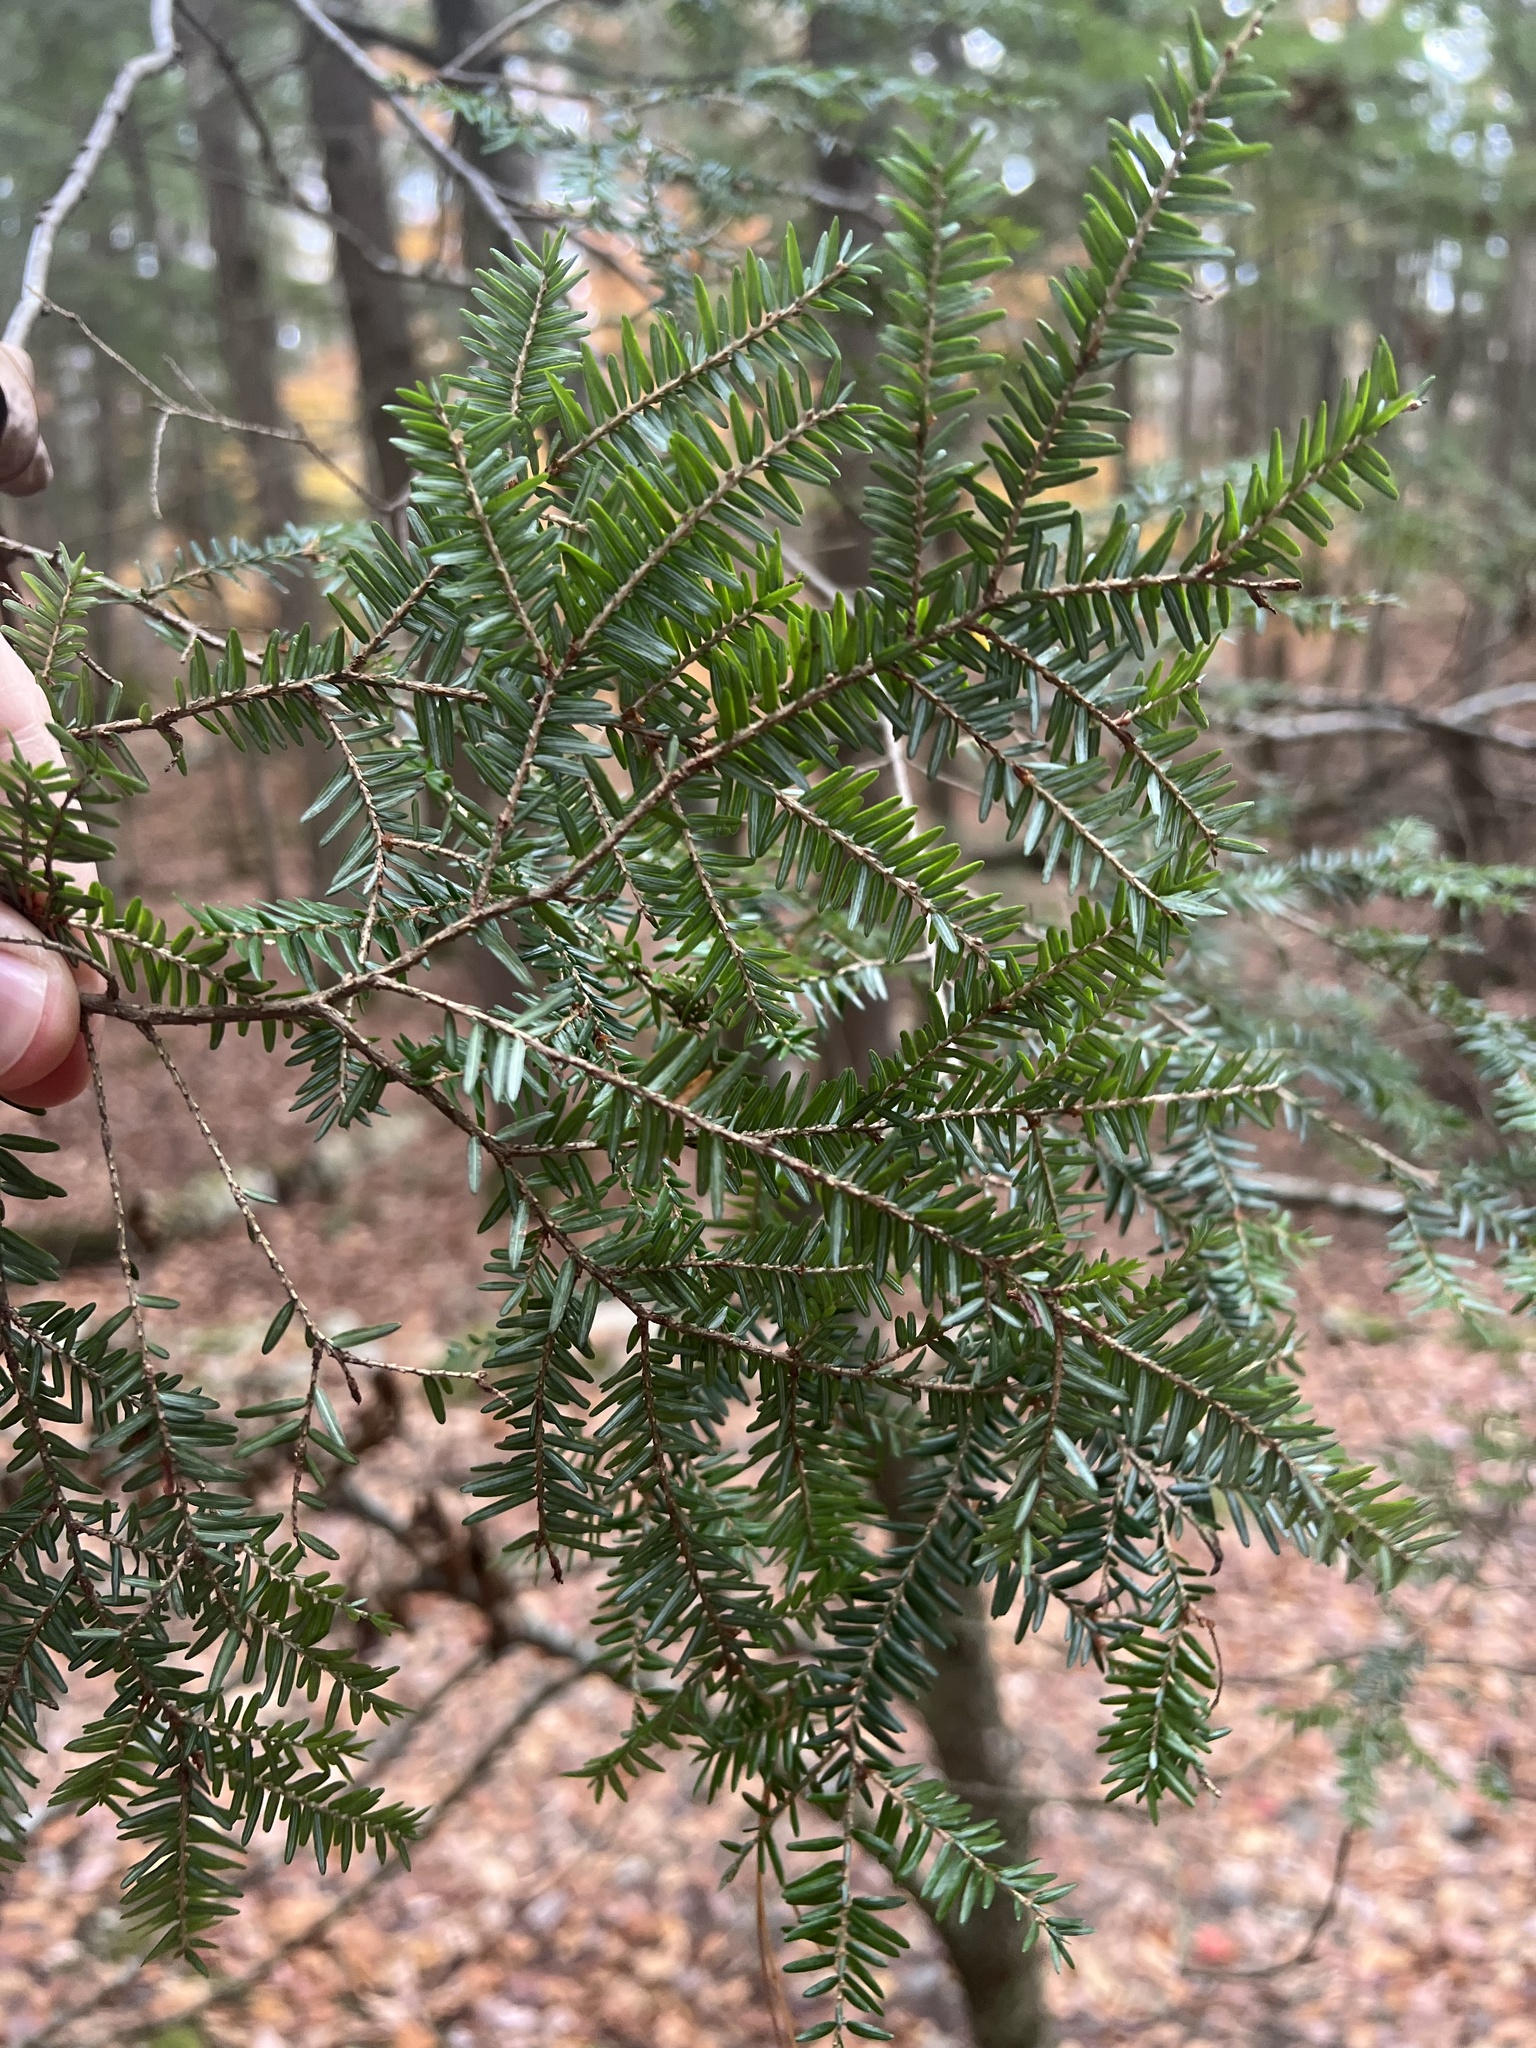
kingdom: Plantae
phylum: Tracheophyta
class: Pinopsida
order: Pinales
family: Pinaceae
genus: Tsuga
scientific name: Tsuga canadensis
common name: Eastern hemlock
